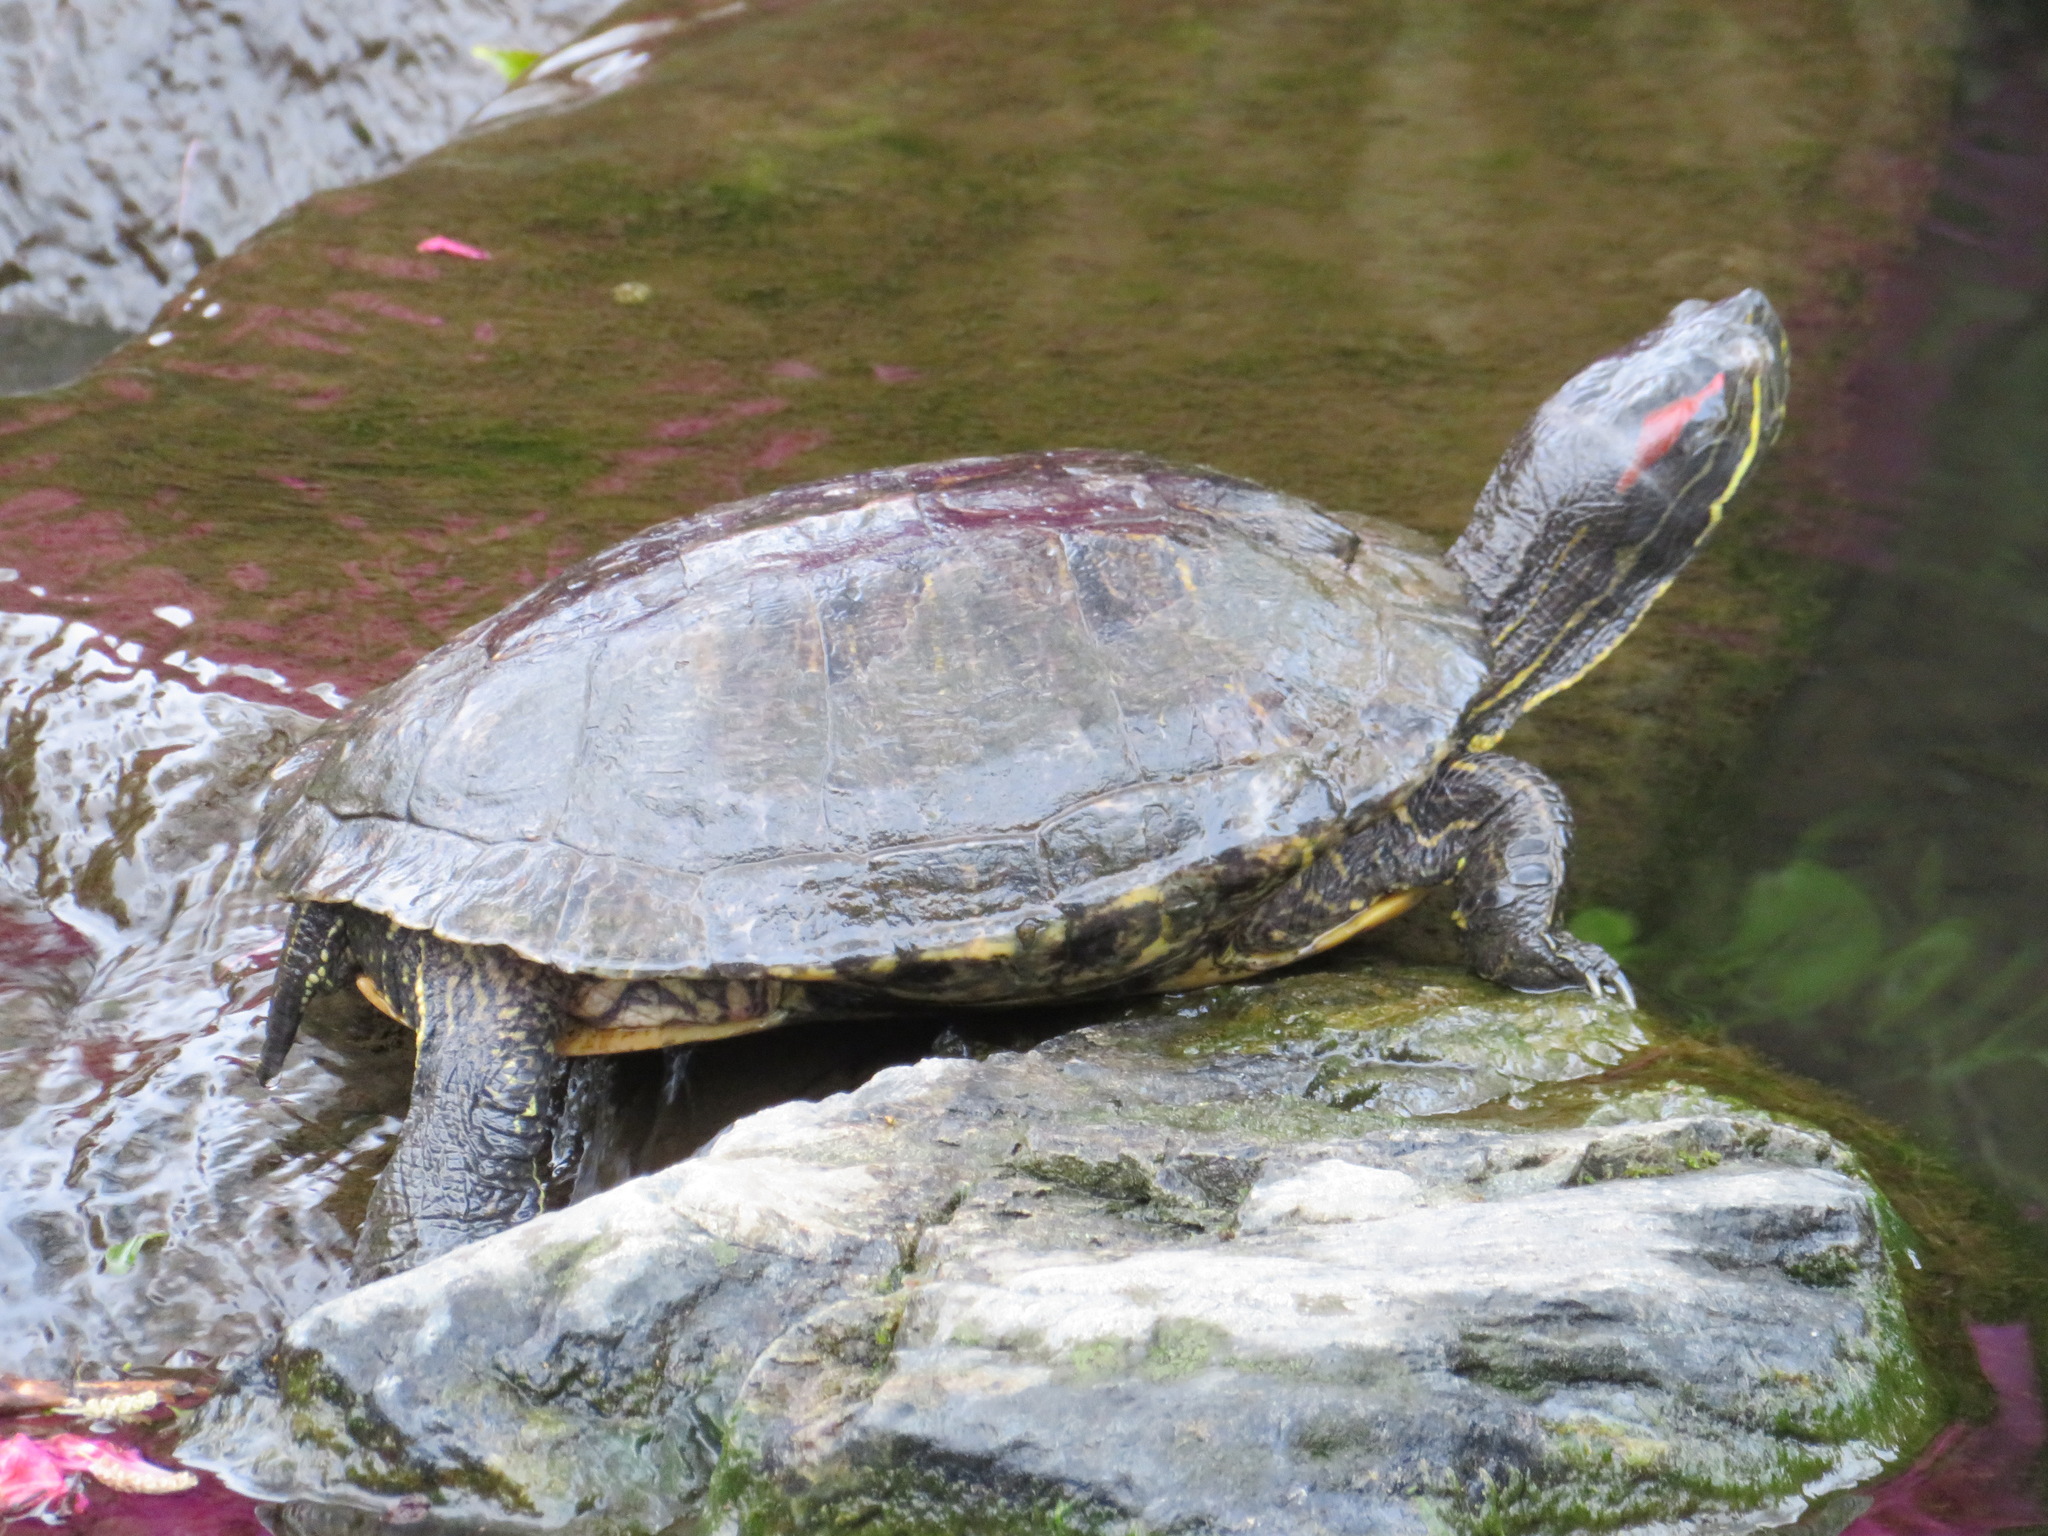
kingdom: Animalia
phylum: Chordata
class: Testudines
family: Emydidae
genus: Trachemys
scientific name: Trachemys scripta
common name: Slider
